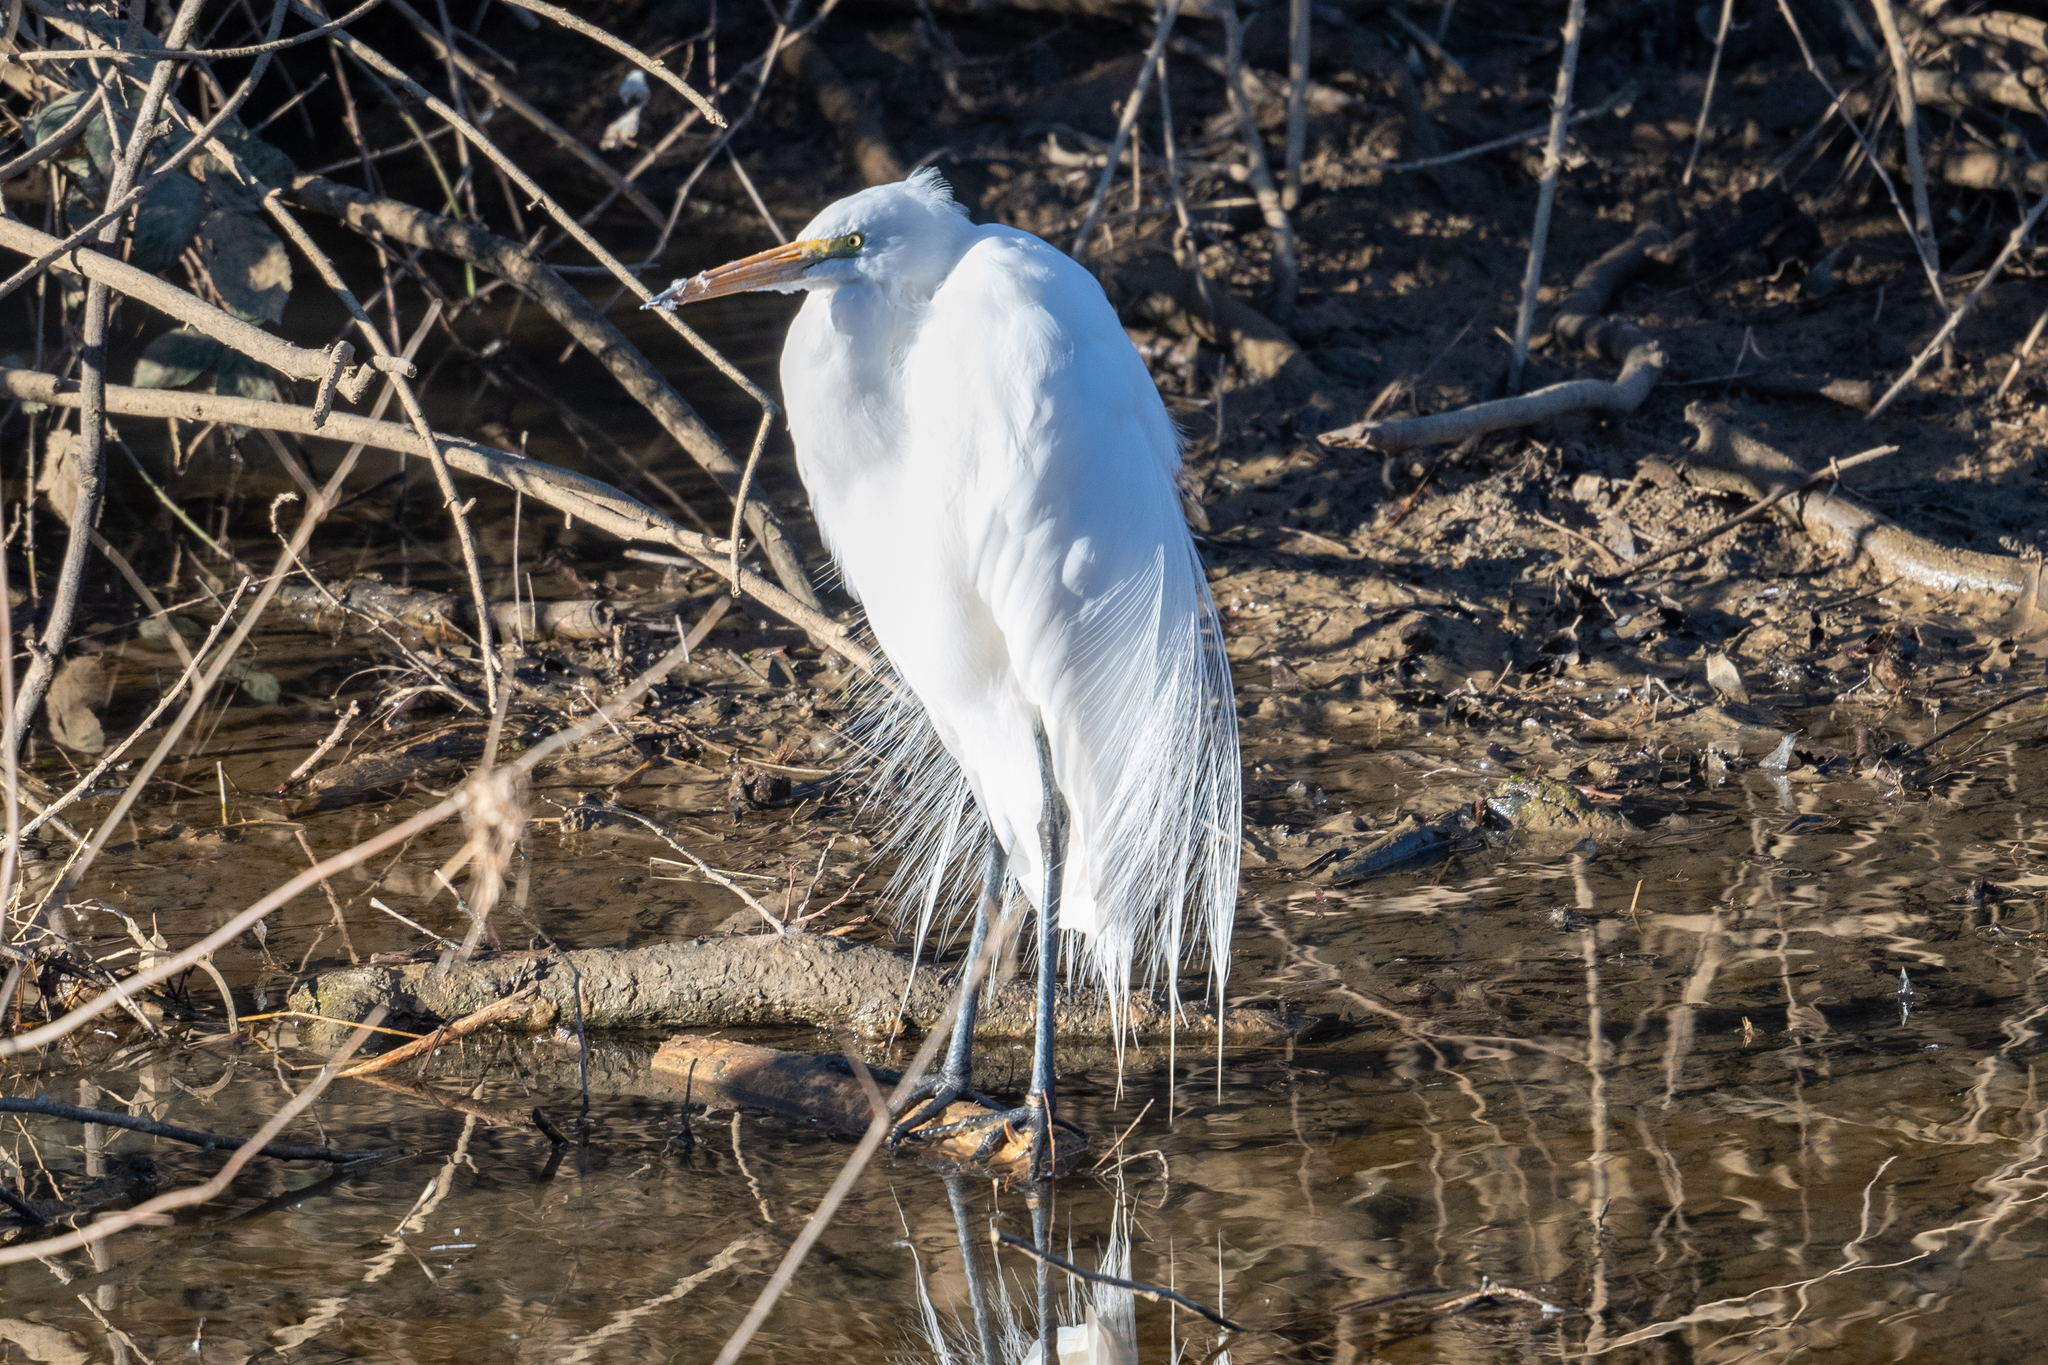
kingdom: Animalia
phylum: Chordata
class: Aves
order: Pelecaniformes
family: Ardeidae
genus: Ardea
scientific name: Ardea alba
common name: Great egret
